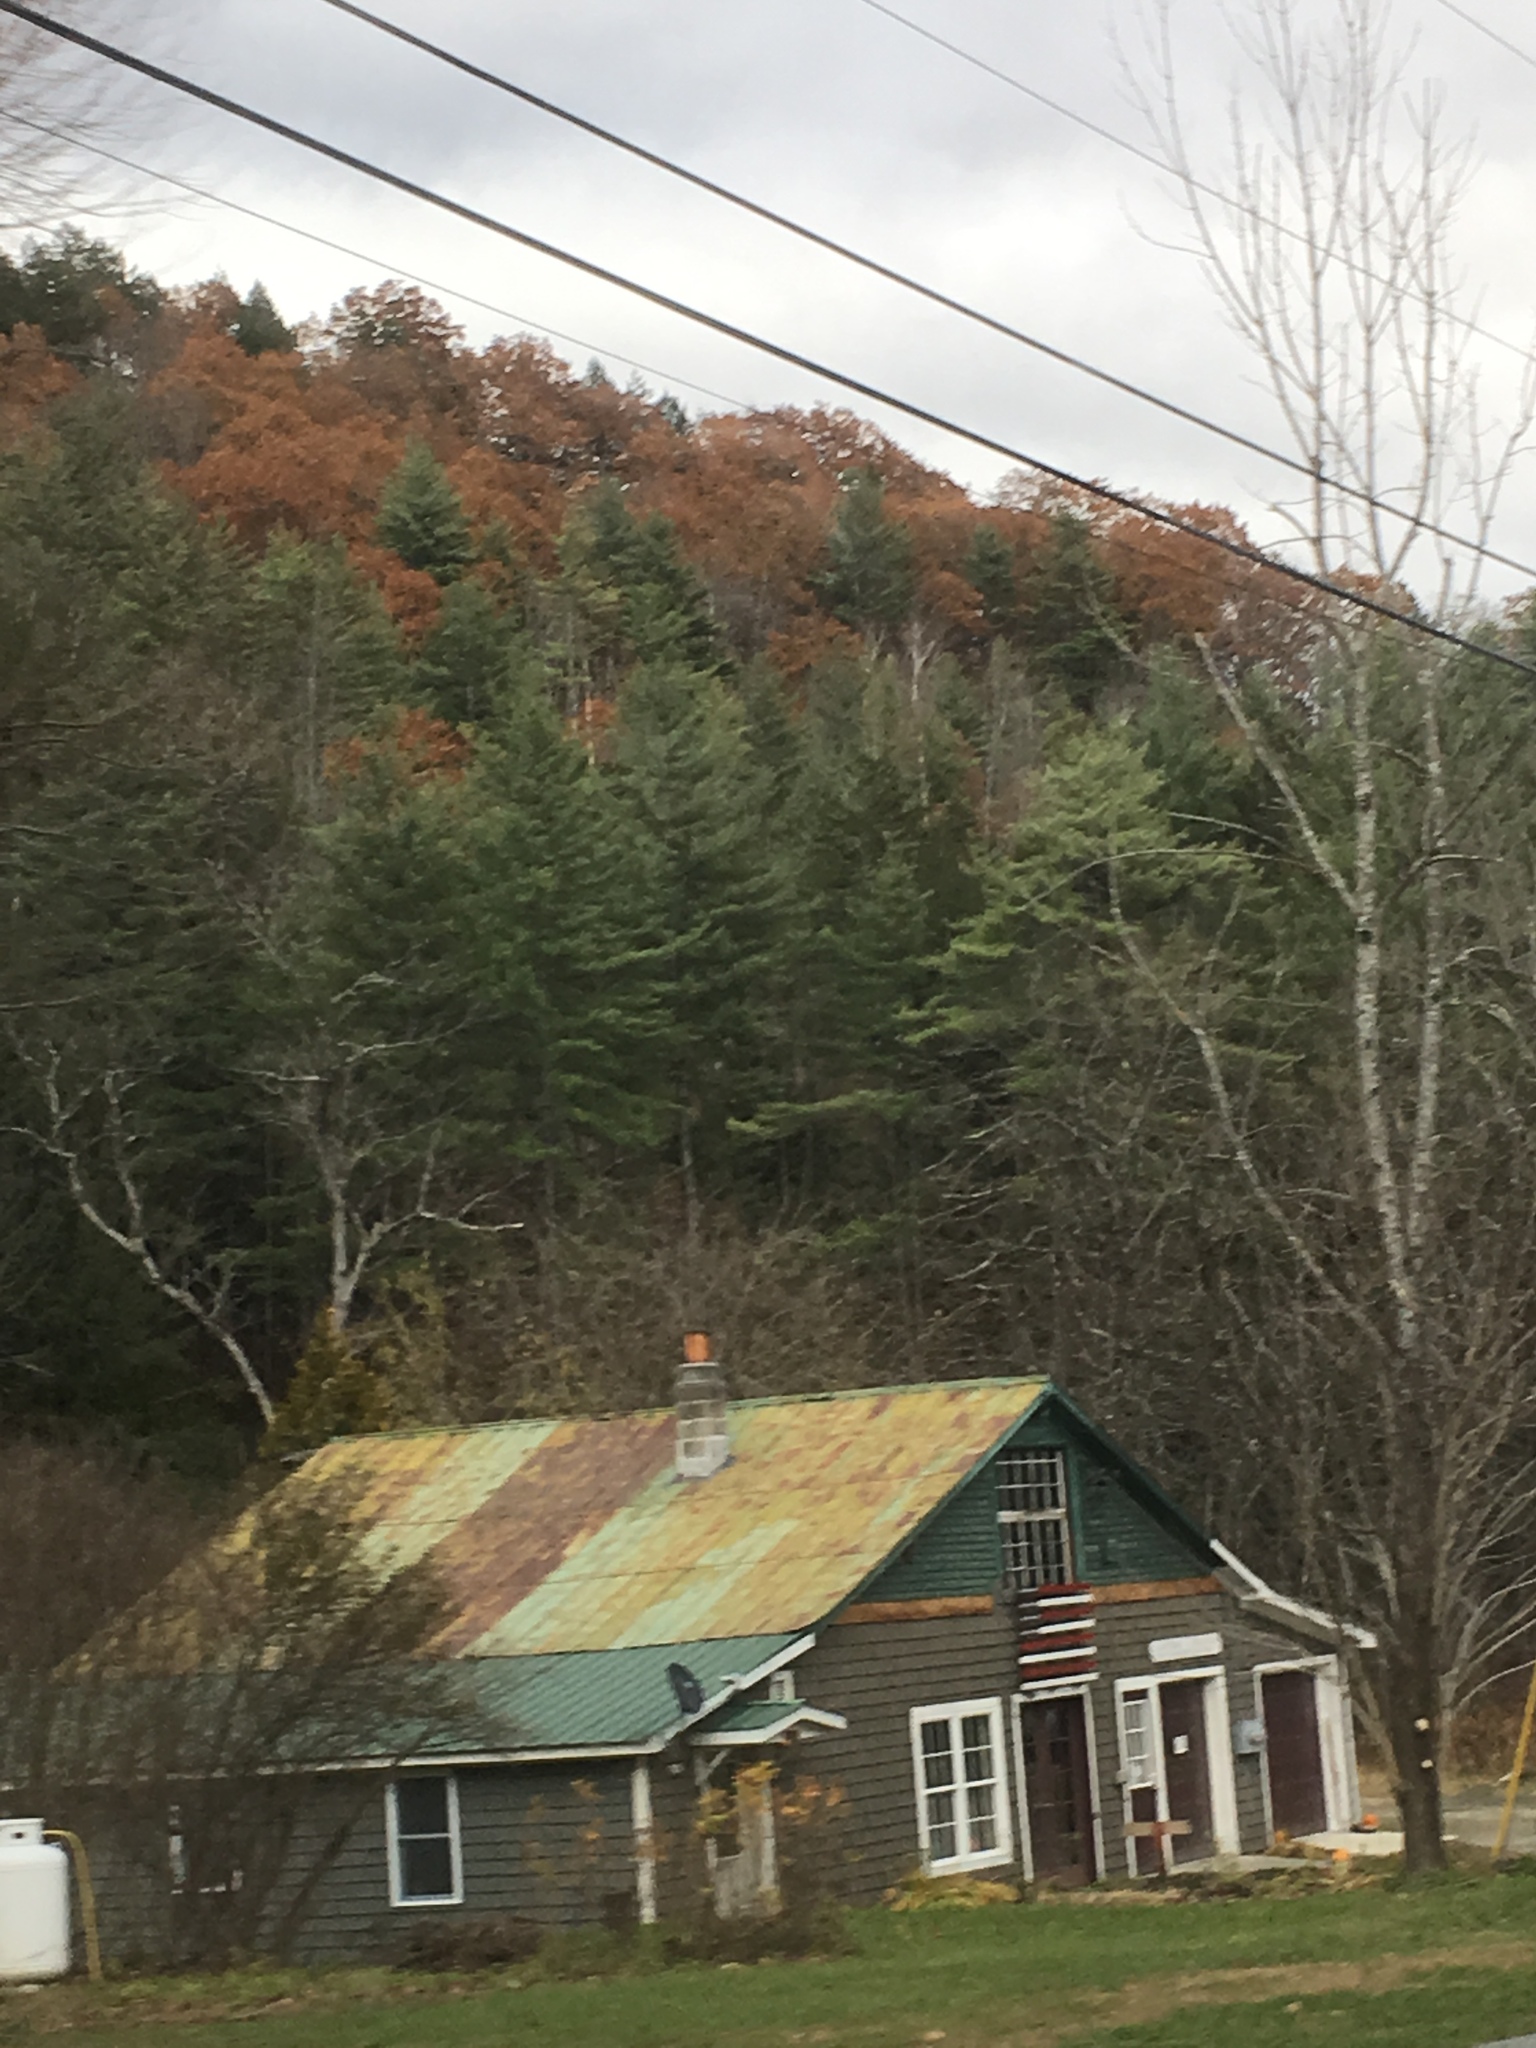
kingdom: Plantae
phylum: Tracheophyta
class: Magnoliopsida
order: Fagales
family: Fagaceae
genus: Quercus
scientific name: Quercus rubra
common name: Red oak
